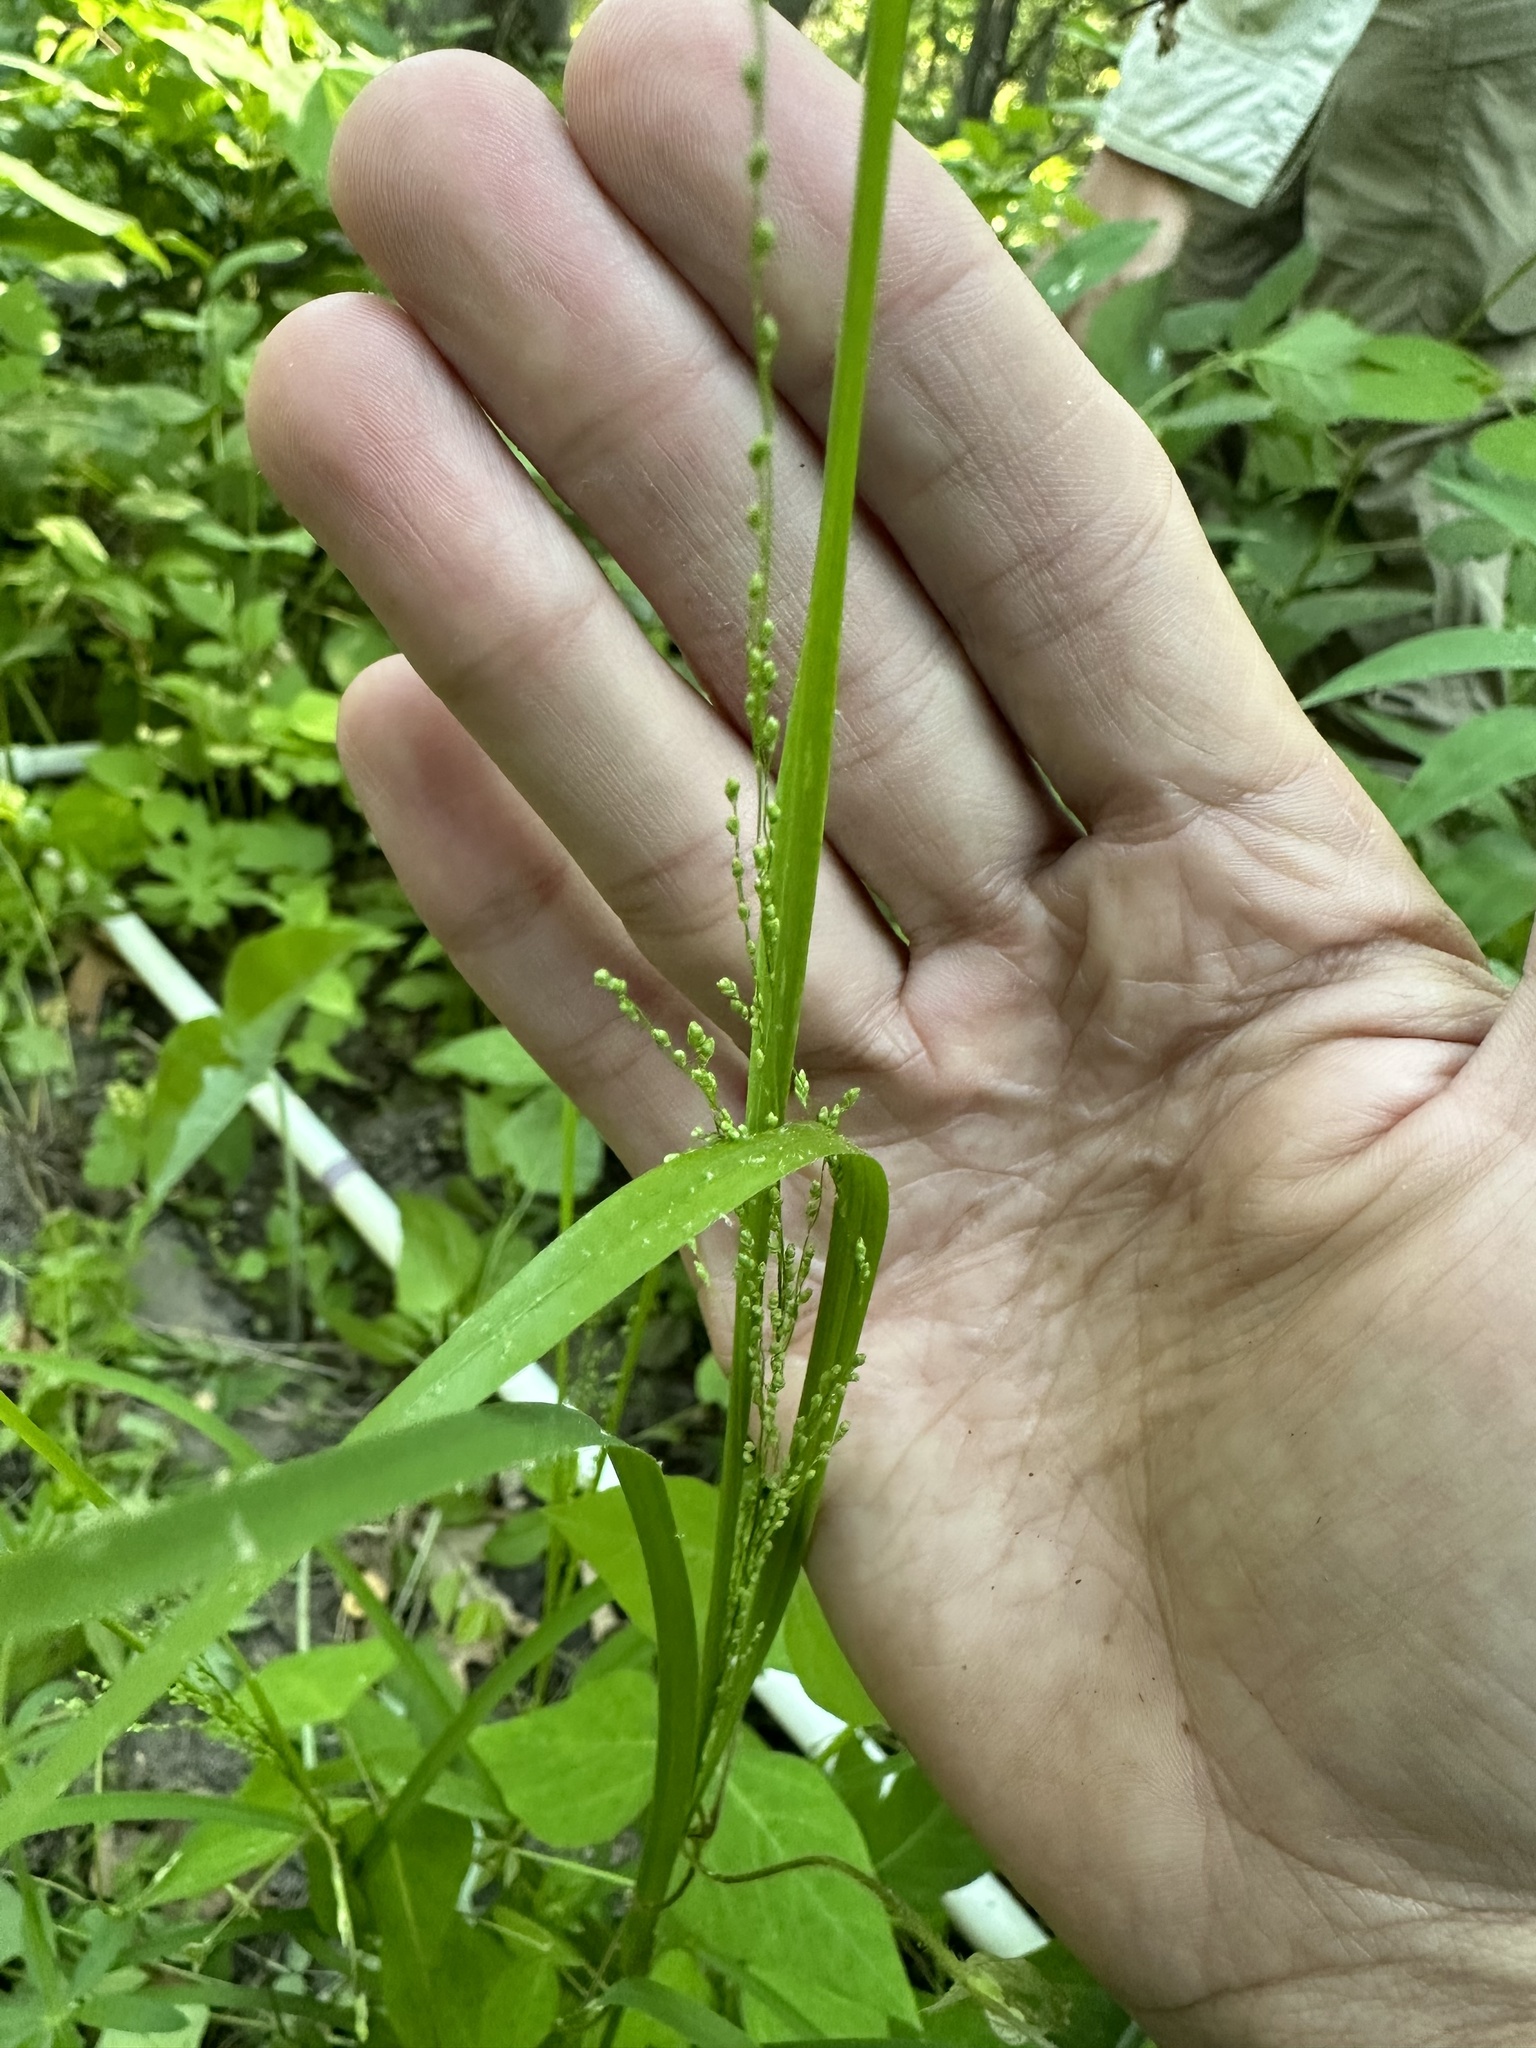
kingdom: Plantae
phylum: Tracheophyta
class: Liliopsida
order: Poales
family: Poaceae
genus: Glyceria
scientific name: Glyceria striata
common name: Fowl manna grass
